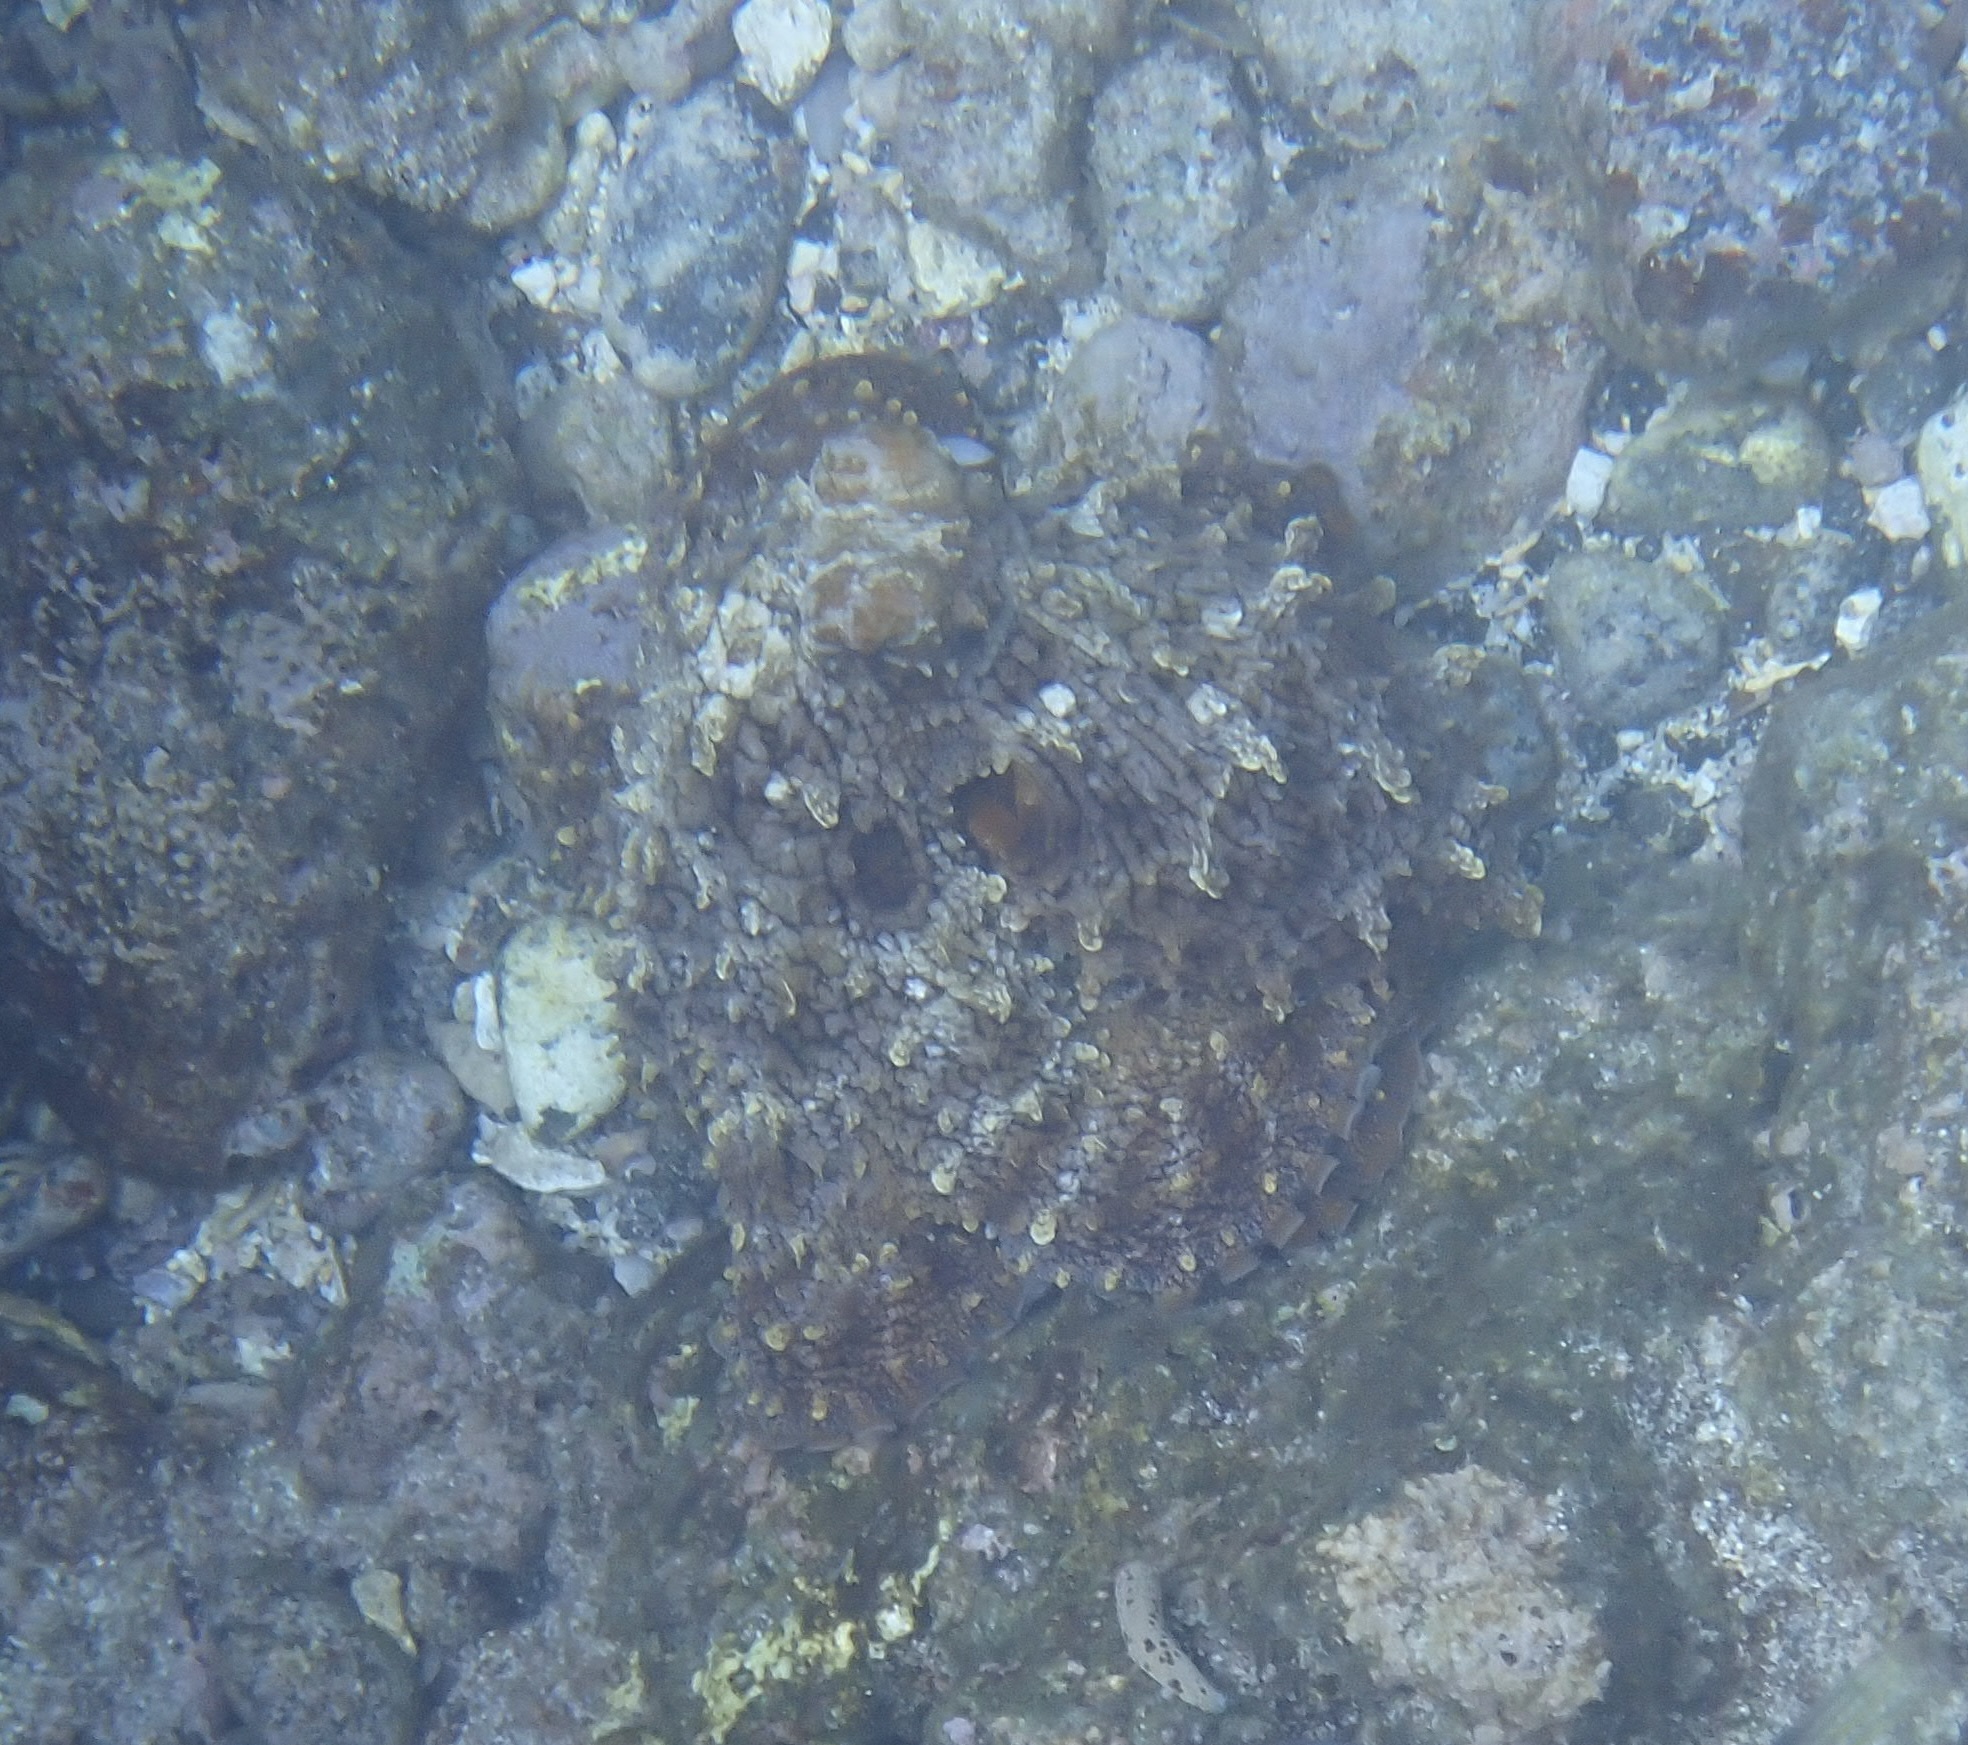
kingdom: Animalia
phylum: Mollusca
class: Cephalopoda
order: Octopoda
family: Octopodidae
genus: Octopus
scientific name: Octopus cyanea
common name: Cyane's octopus
